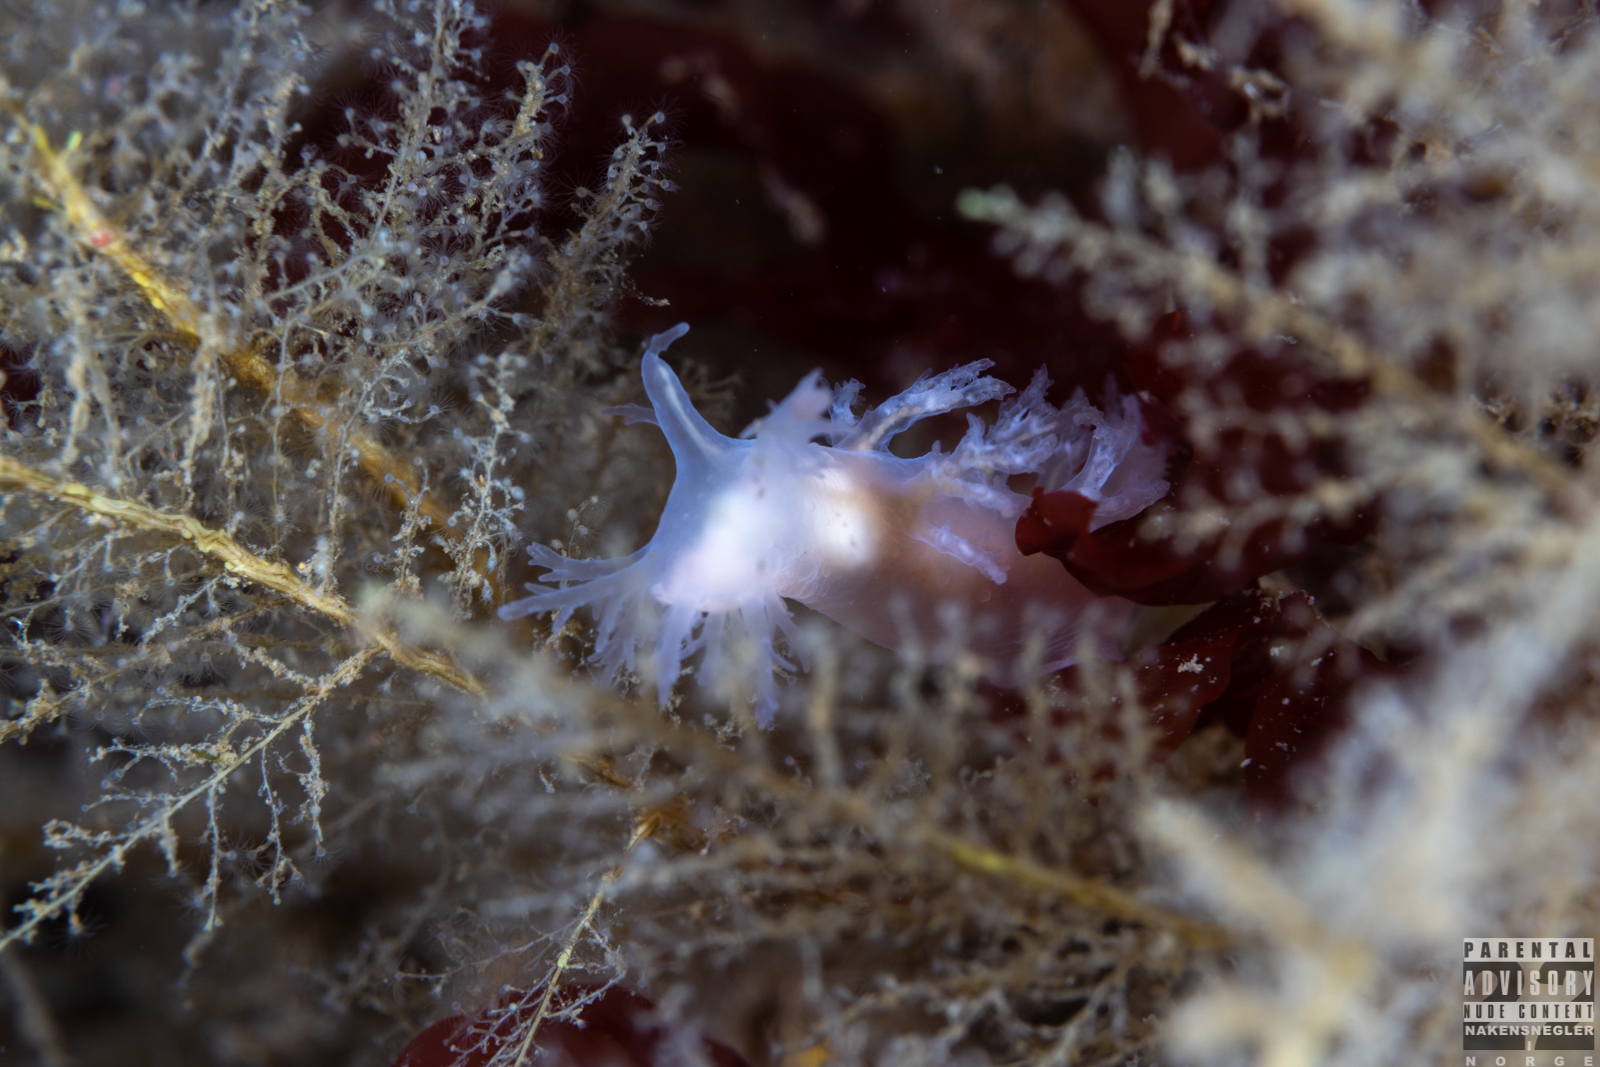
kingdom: Animalia
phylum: Mollusca
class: Gastropoda
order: Nudibranchia
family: Dendronotidae
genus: Dendronotus
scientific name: Dendronotus frondosus
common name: Bushy-backed nudibranch
